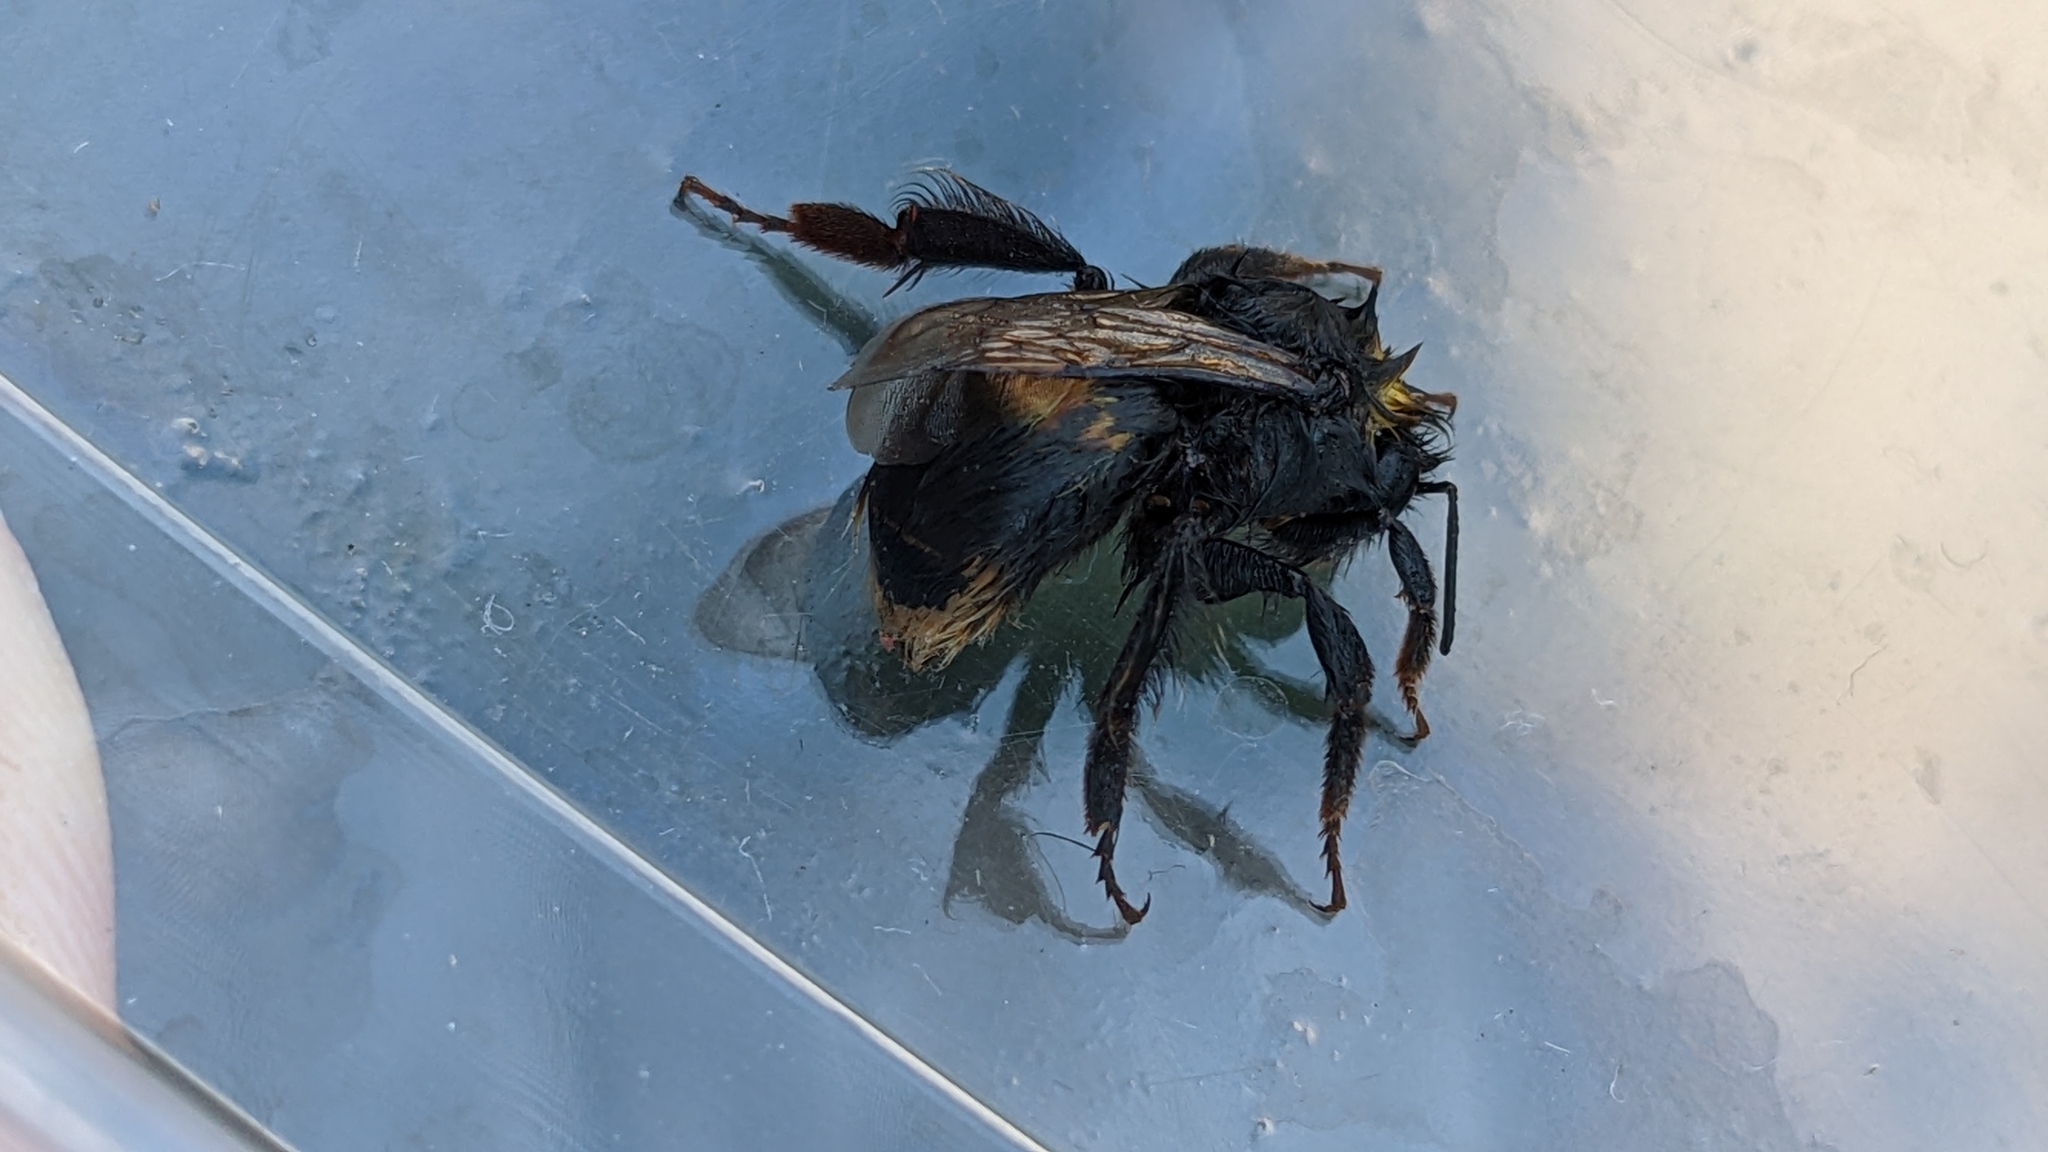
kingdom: Animalia
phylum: Arthropoda
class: Insecta
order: Hymenoptera
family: Apidae
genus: Bombus
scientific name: Bombus terrestris
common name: Buff-tailed bumblebee
